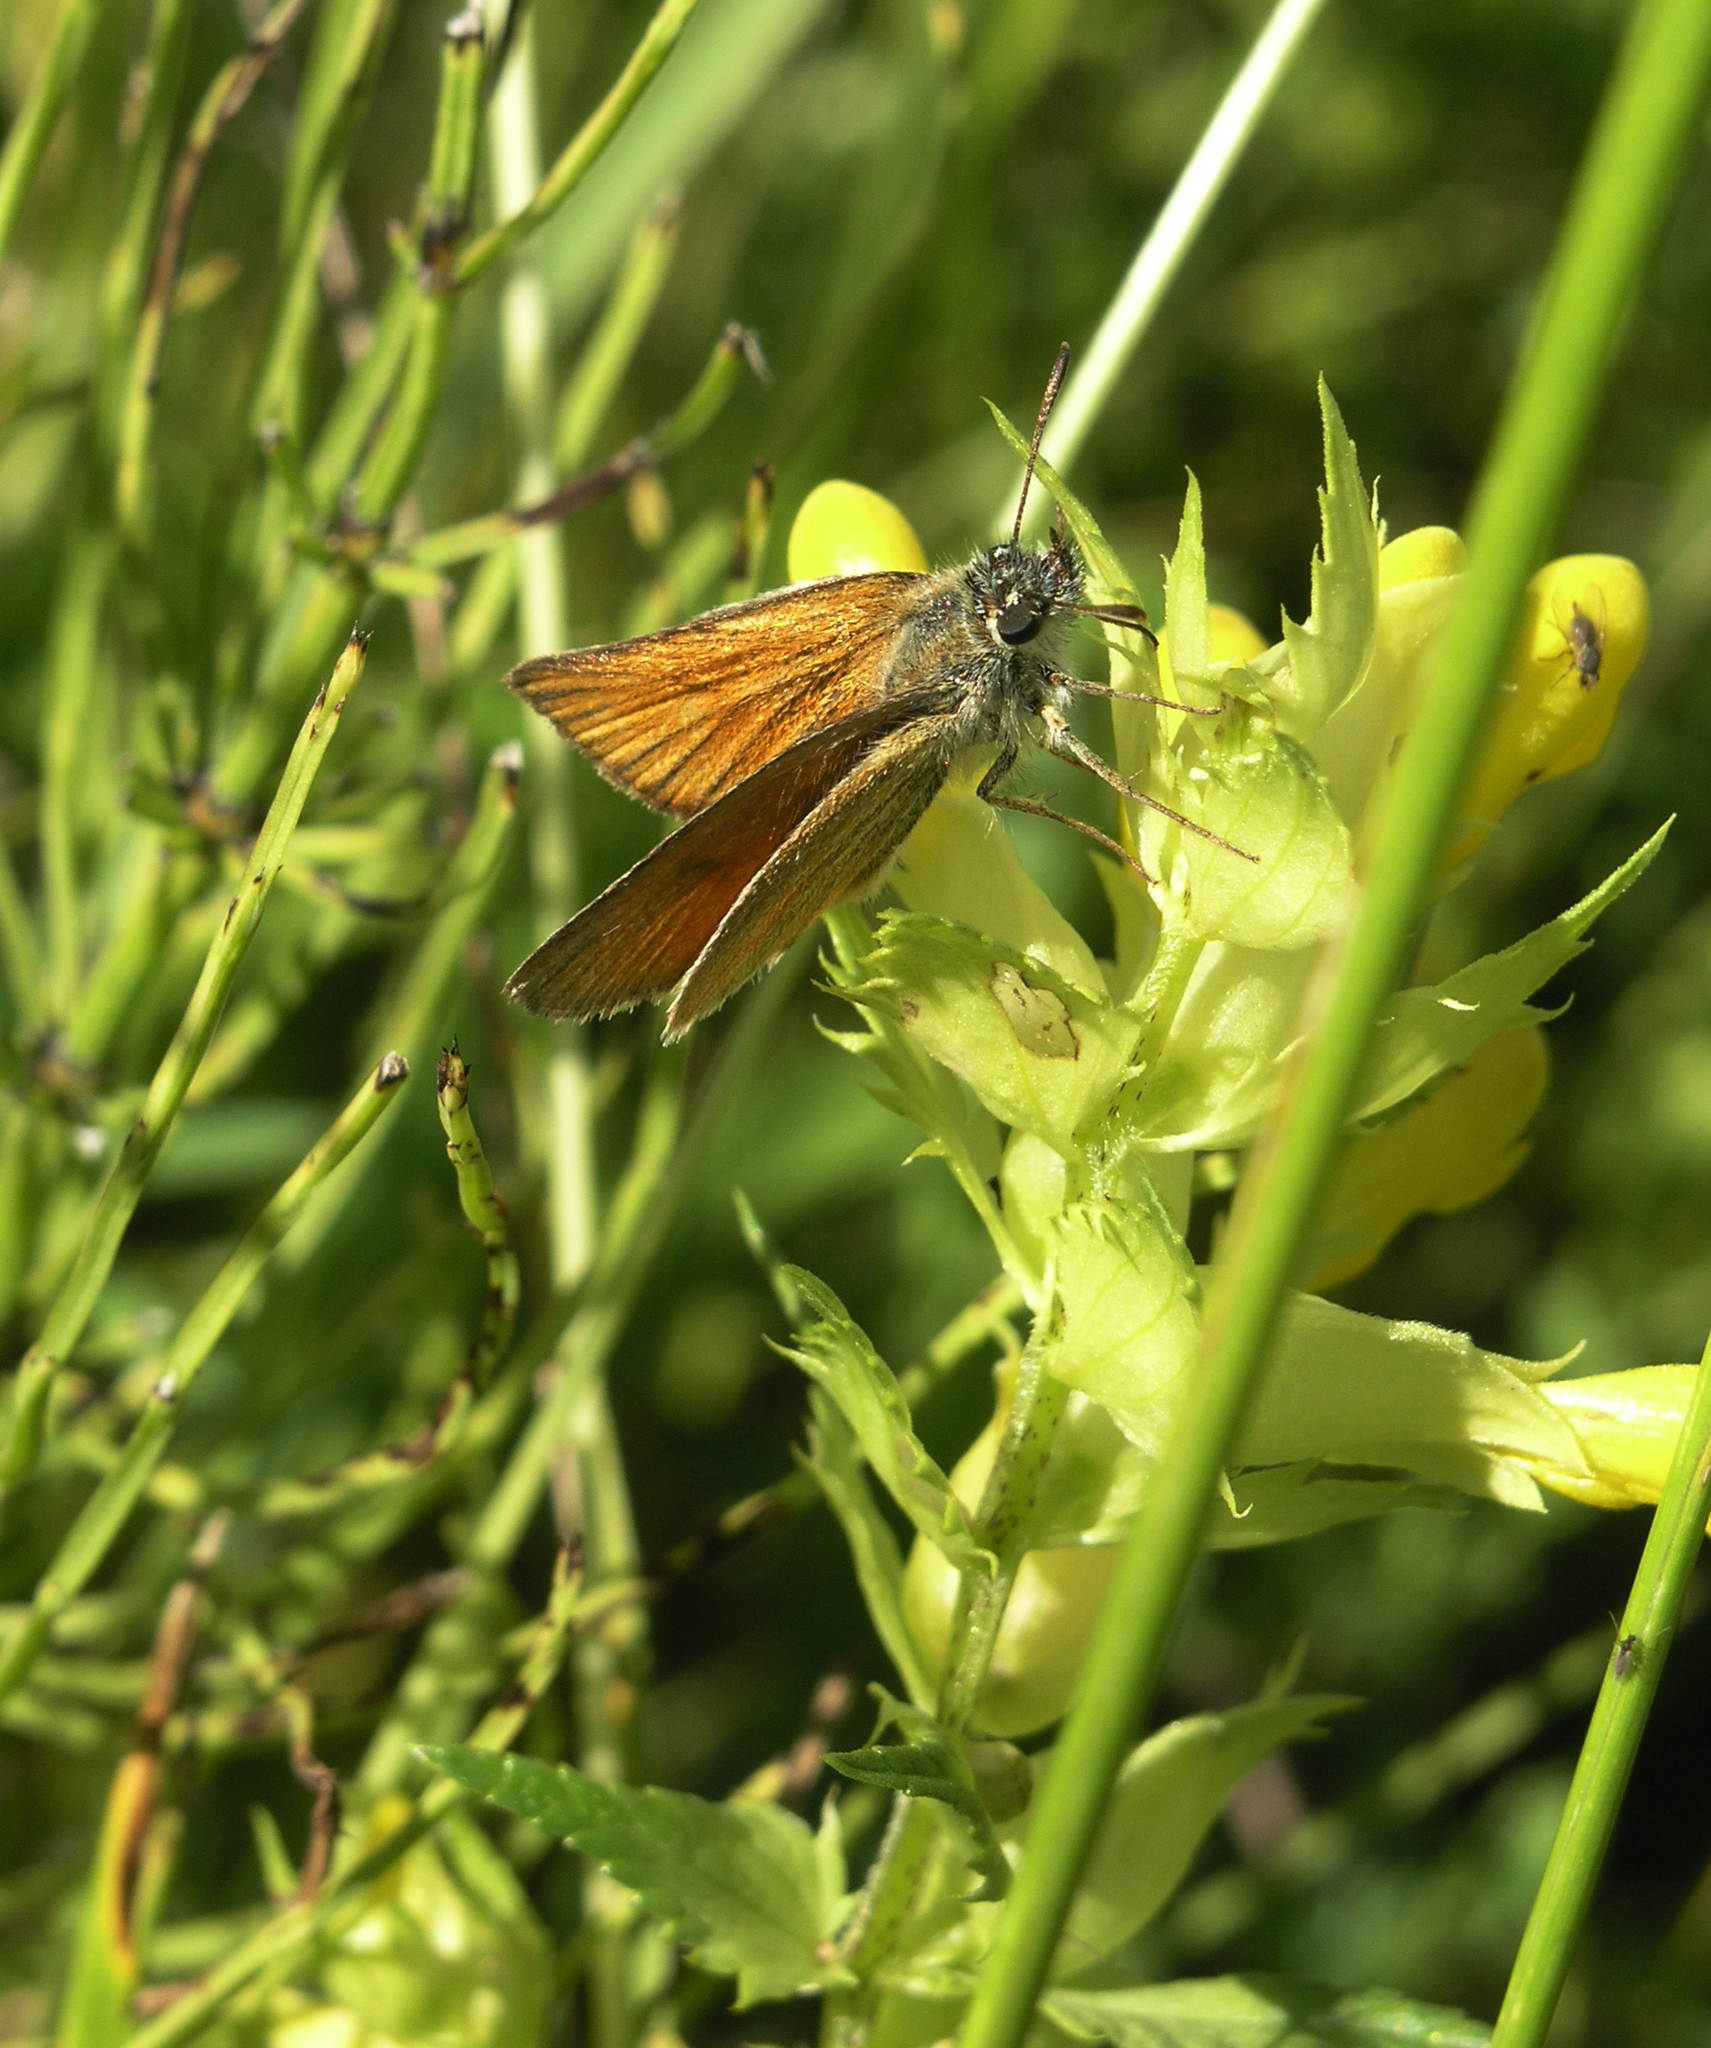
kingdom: Plantae
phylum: Tracheophyta
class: Magnoliopsida
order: Lamiales
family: Orobanchaceae
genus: Rhinanthus
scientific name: Rhinanthus serotinus
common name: Late-flowering yellow rattle
